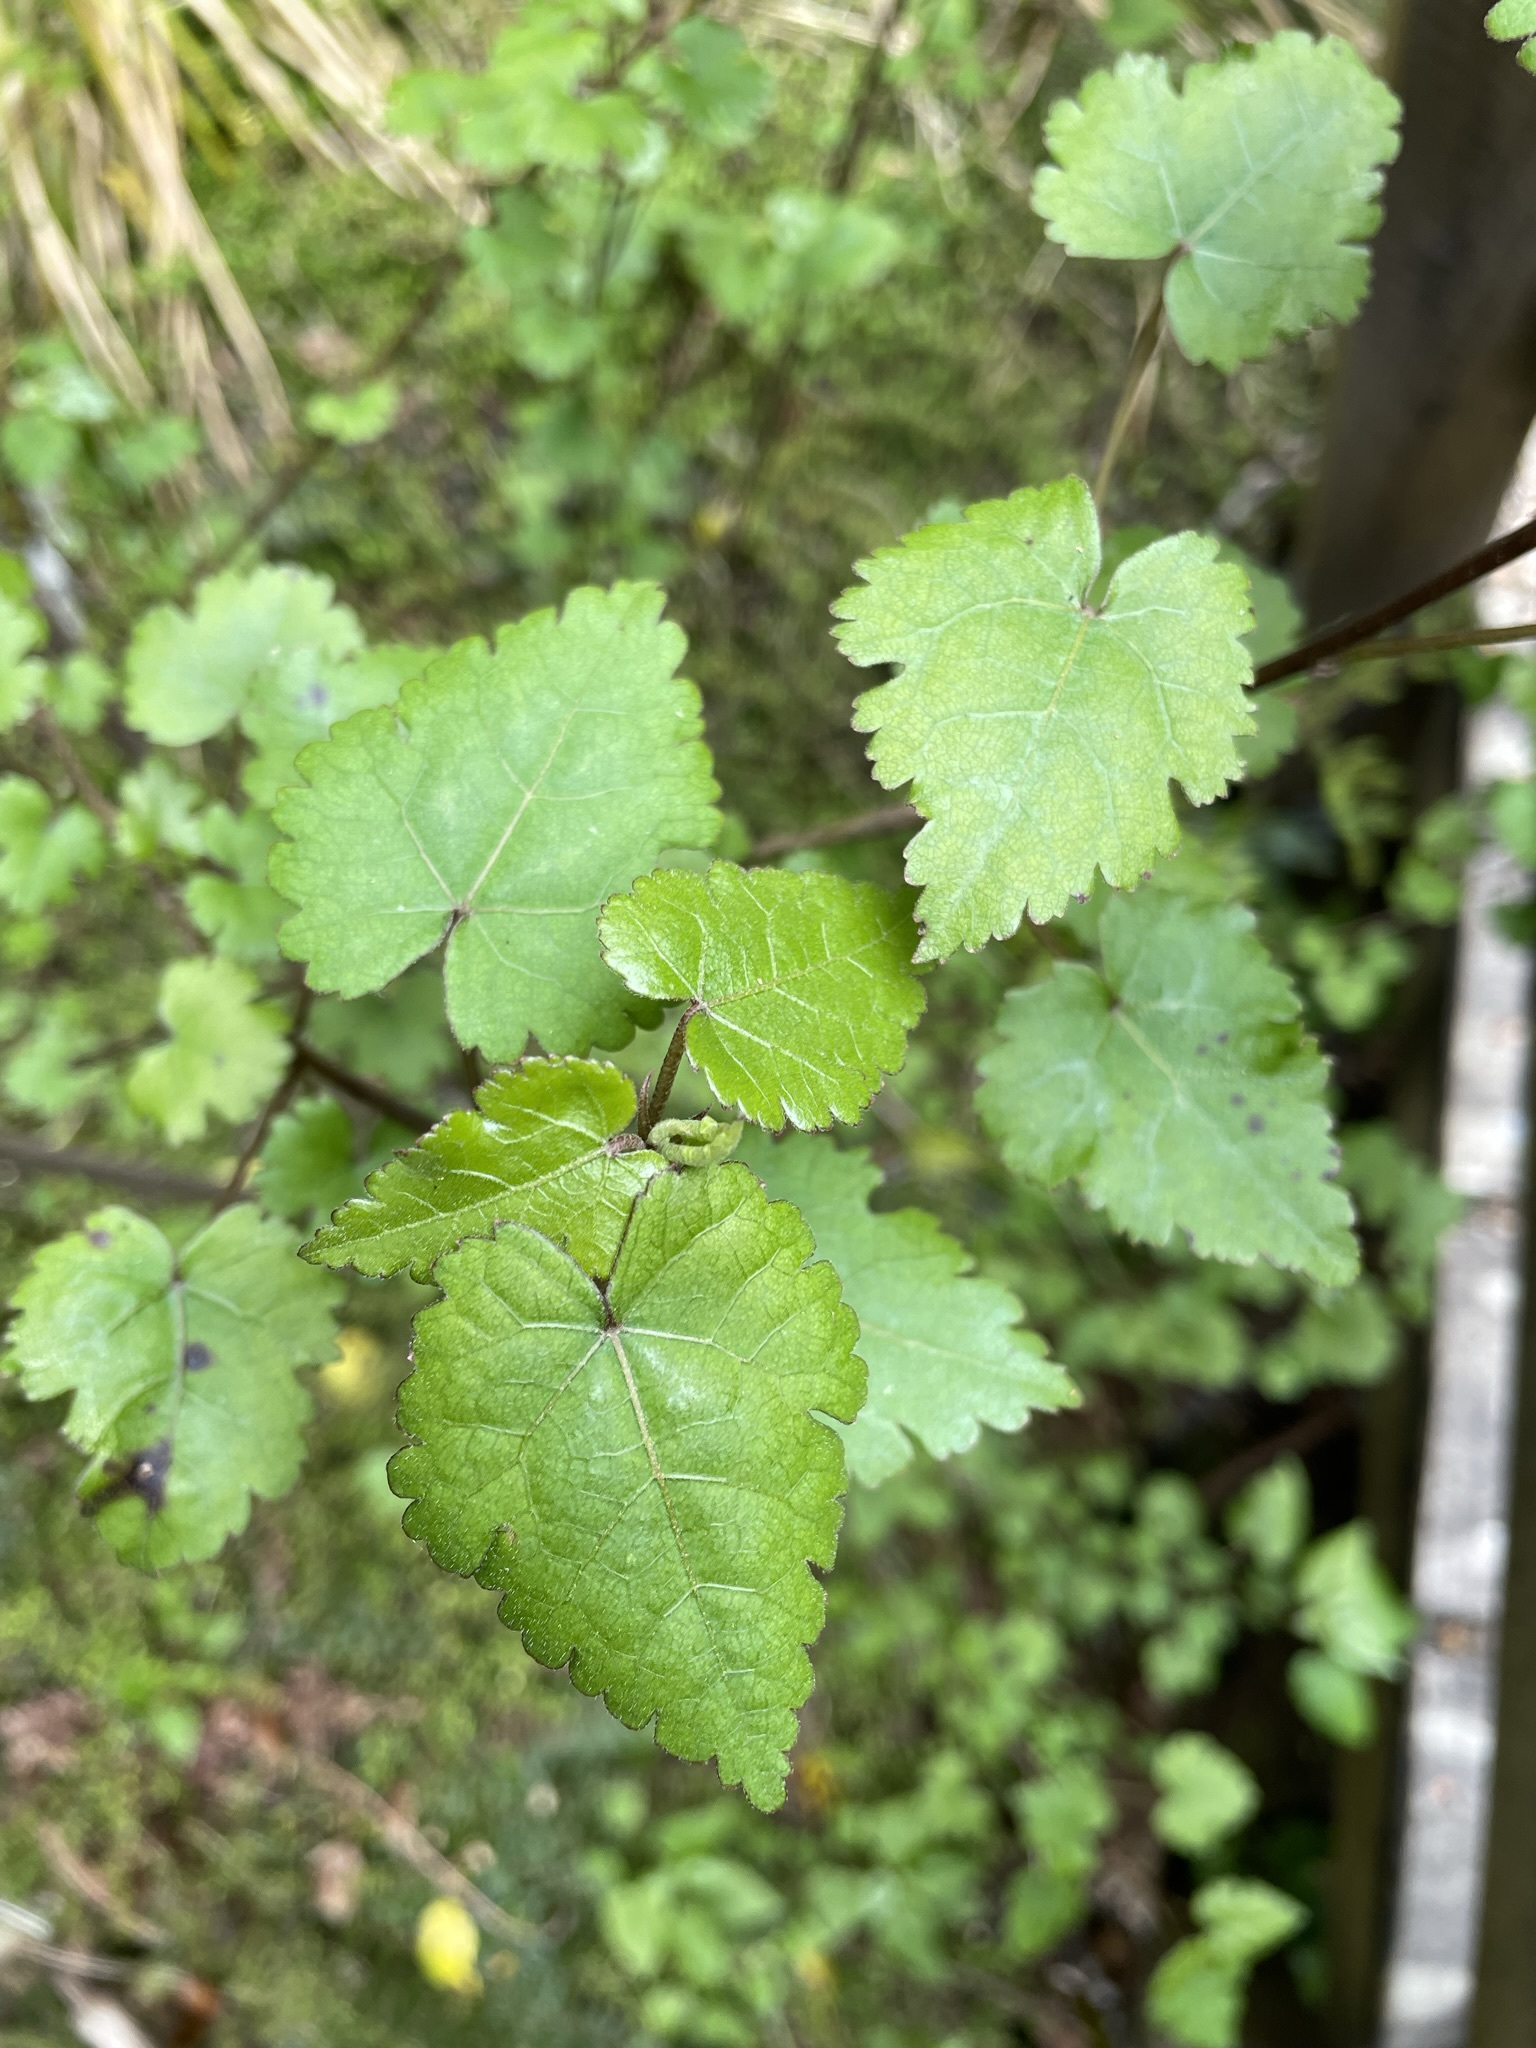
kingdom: Plantae
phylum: Tracheophyta
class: Magnoliopsida
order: Malvales
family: Malvaceae
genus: Hoheria
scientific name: Hoheria glabrata
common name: Mountain-ribbon
